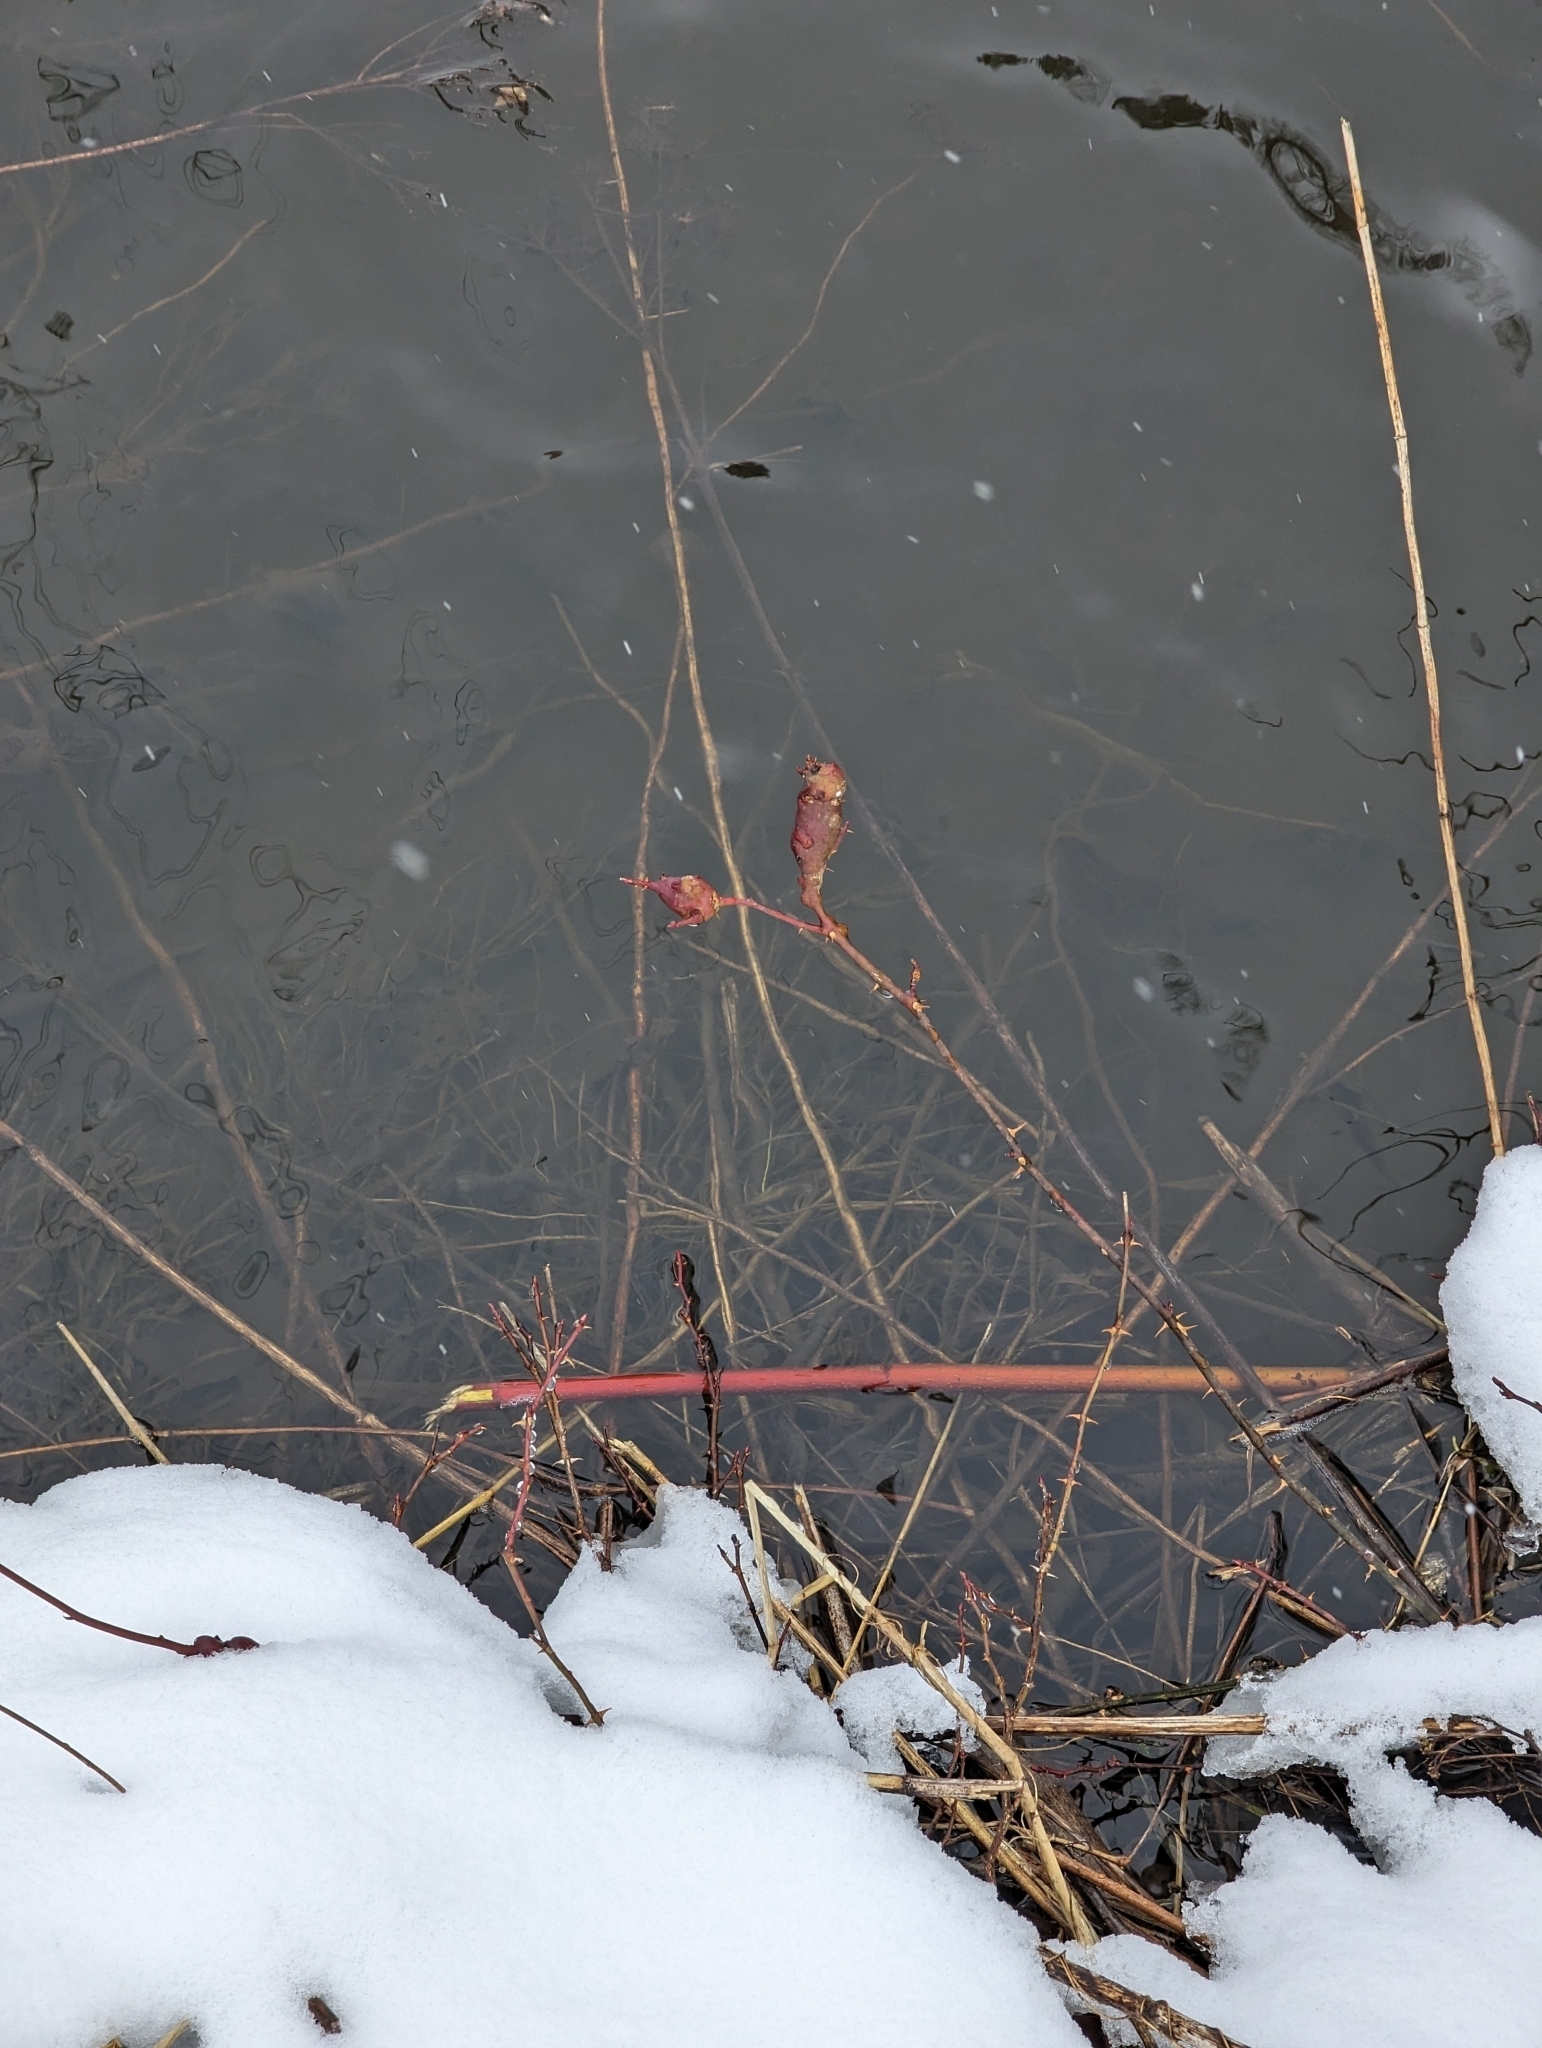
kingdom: Plantae
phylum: Tracheophyta
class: Magnoliopsida
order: Rosales
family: Rosaceae
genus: Rosa
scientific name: Rosa palustris
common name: Swamp rose
